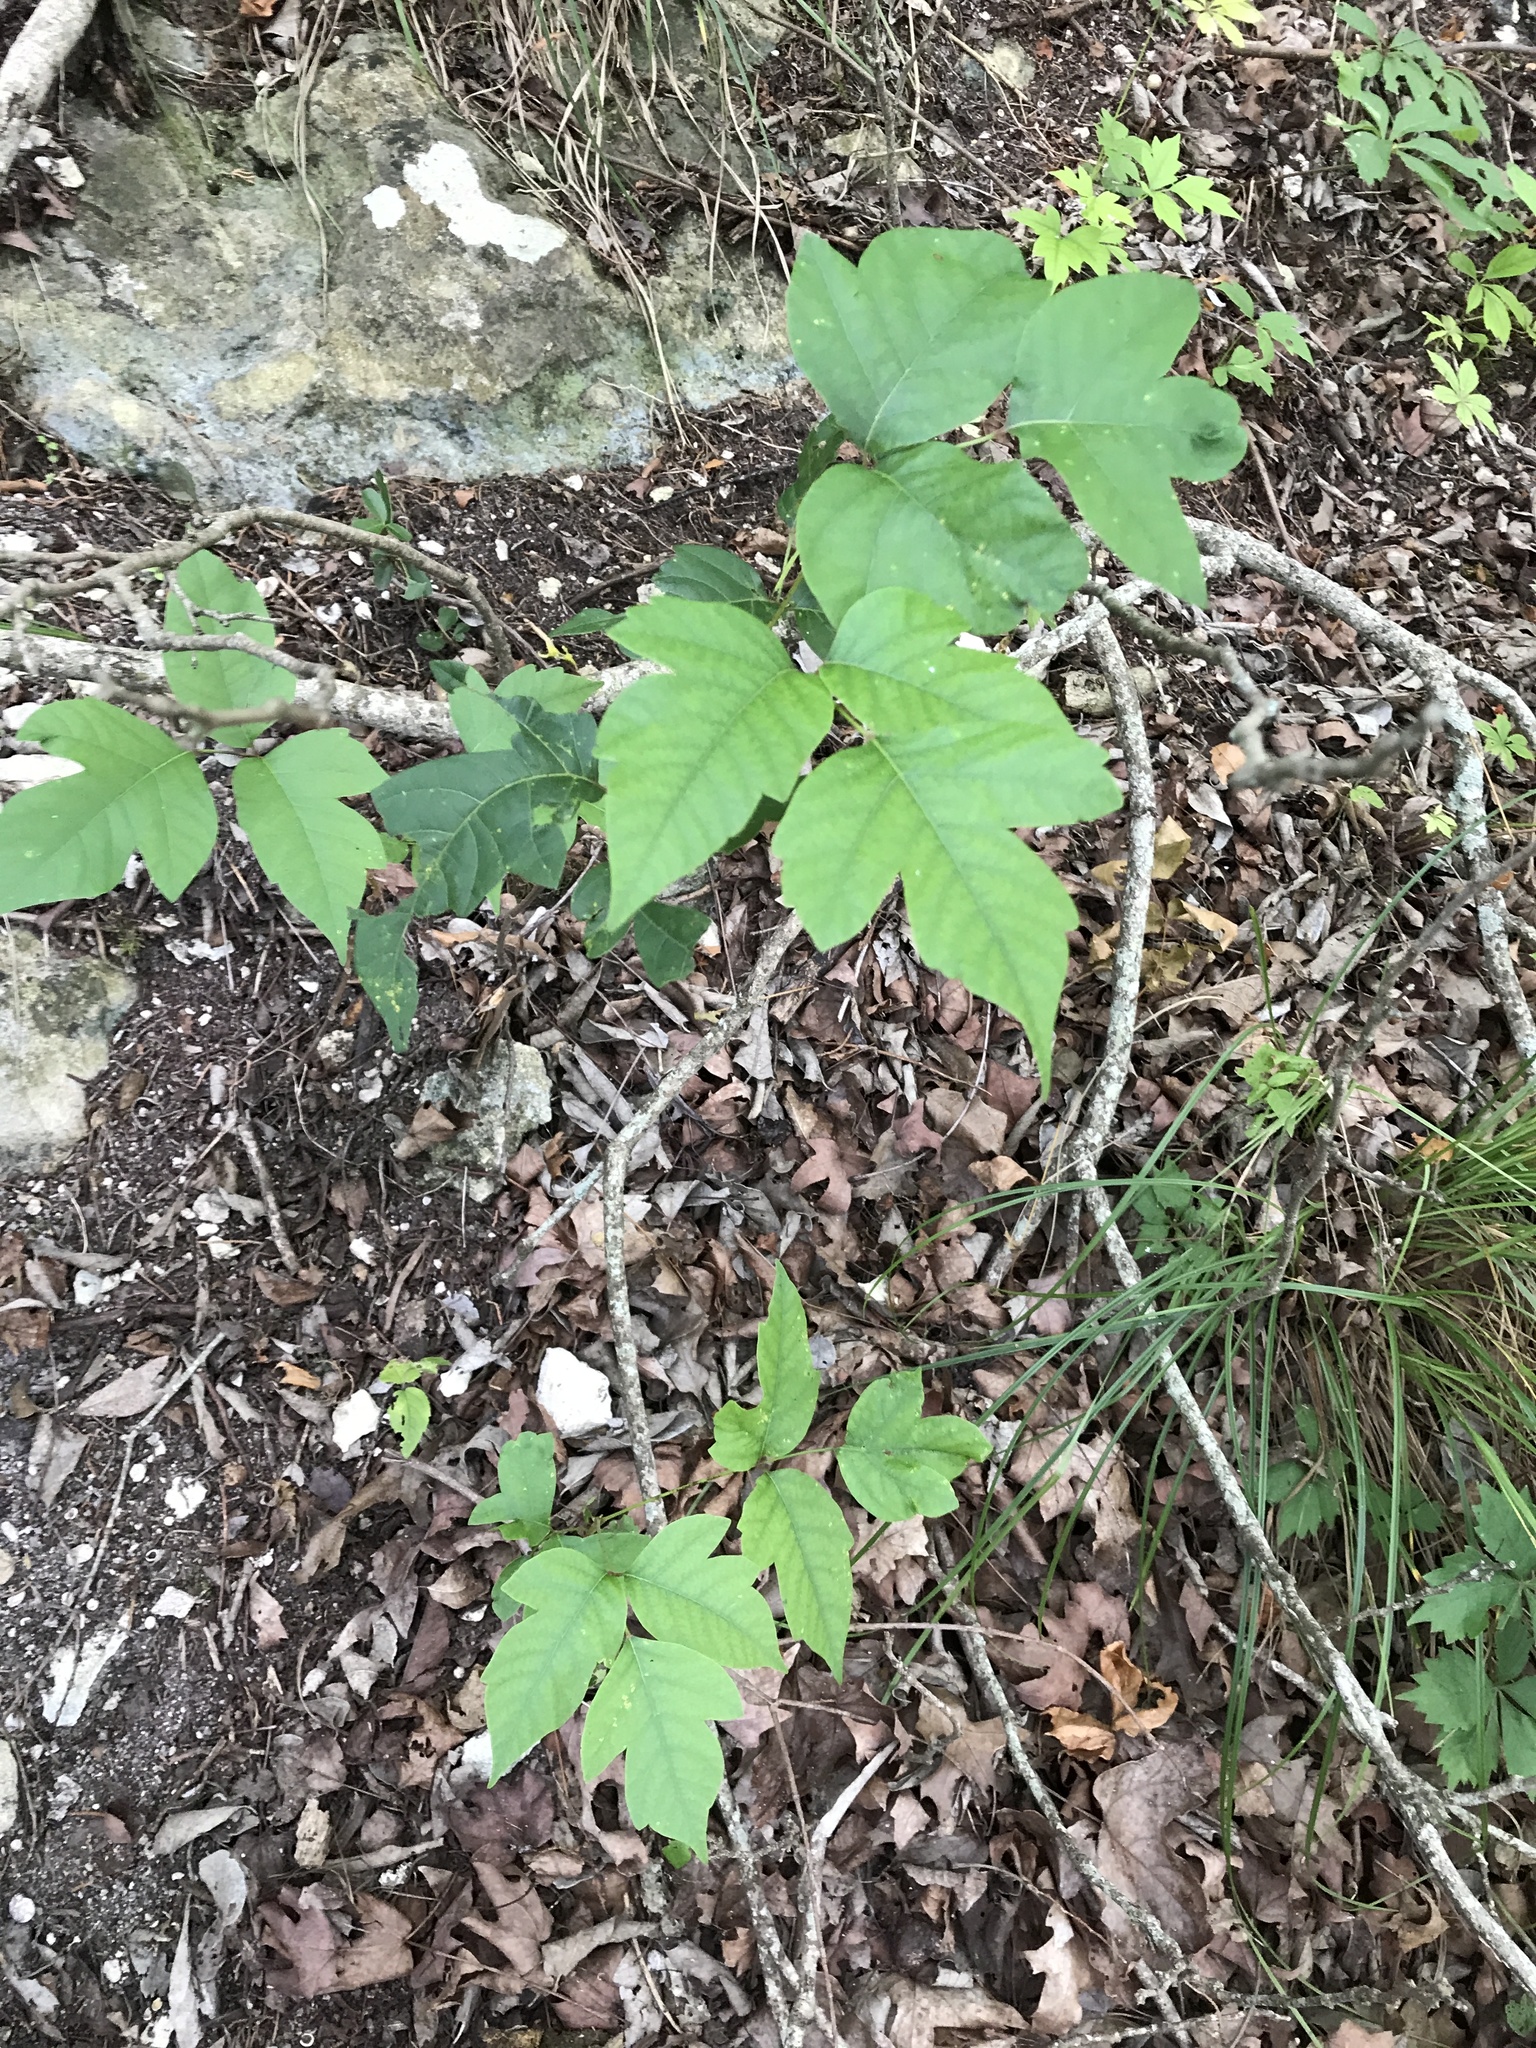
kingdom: Plantae
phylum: Tracheophyta
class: Magnoliopsida
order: Sapindales
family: Anacardiaceae
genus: Toxicodendron
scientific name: Toxicodendron radicans
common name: Poison ivy
